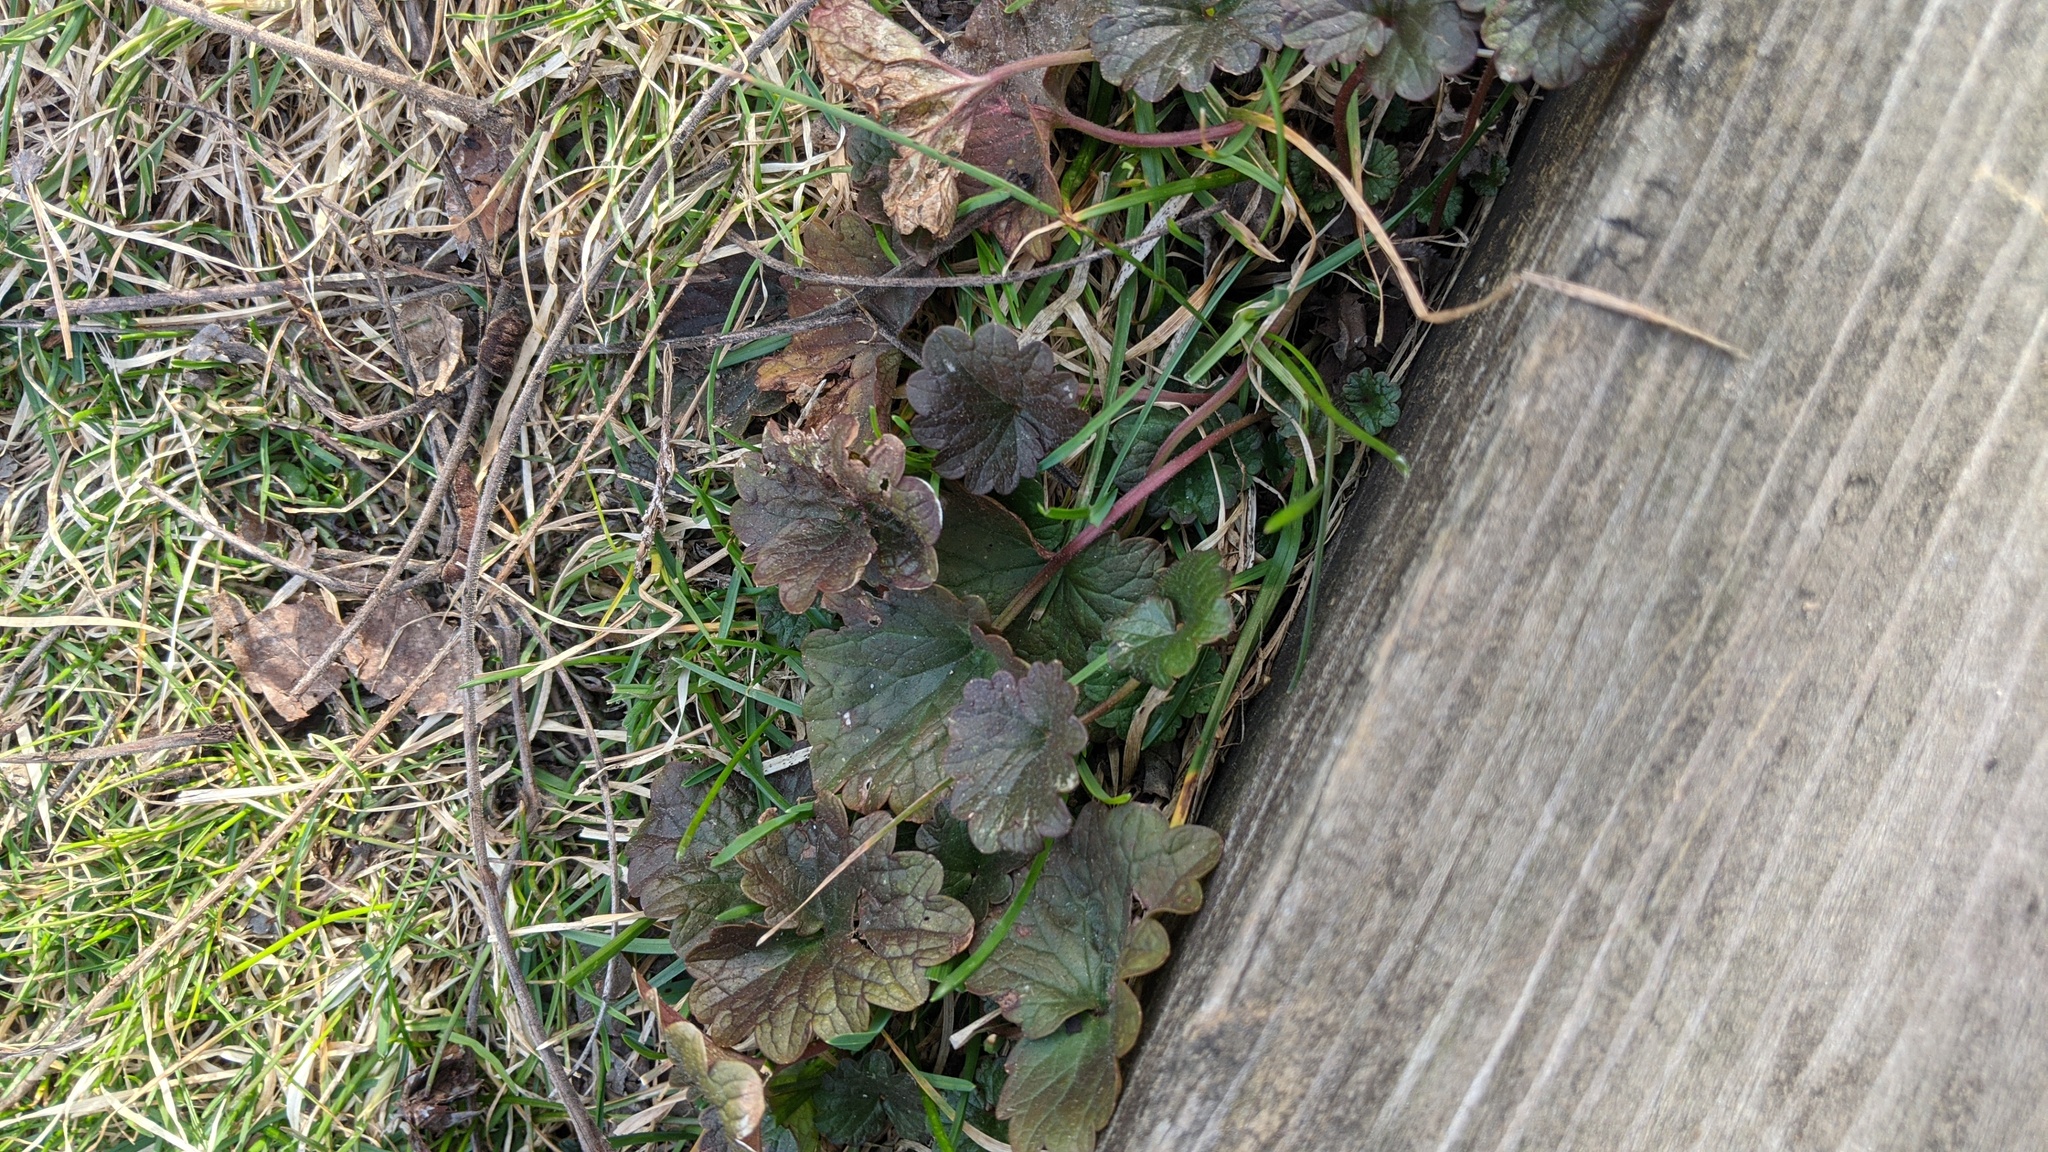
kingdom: Plantae
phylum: Tracheophyta
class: Magnoliopsida
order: Lamiales
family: Lamiaceae
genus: Glechoma
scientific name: Glechoma hederacea
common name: Ground ivy
